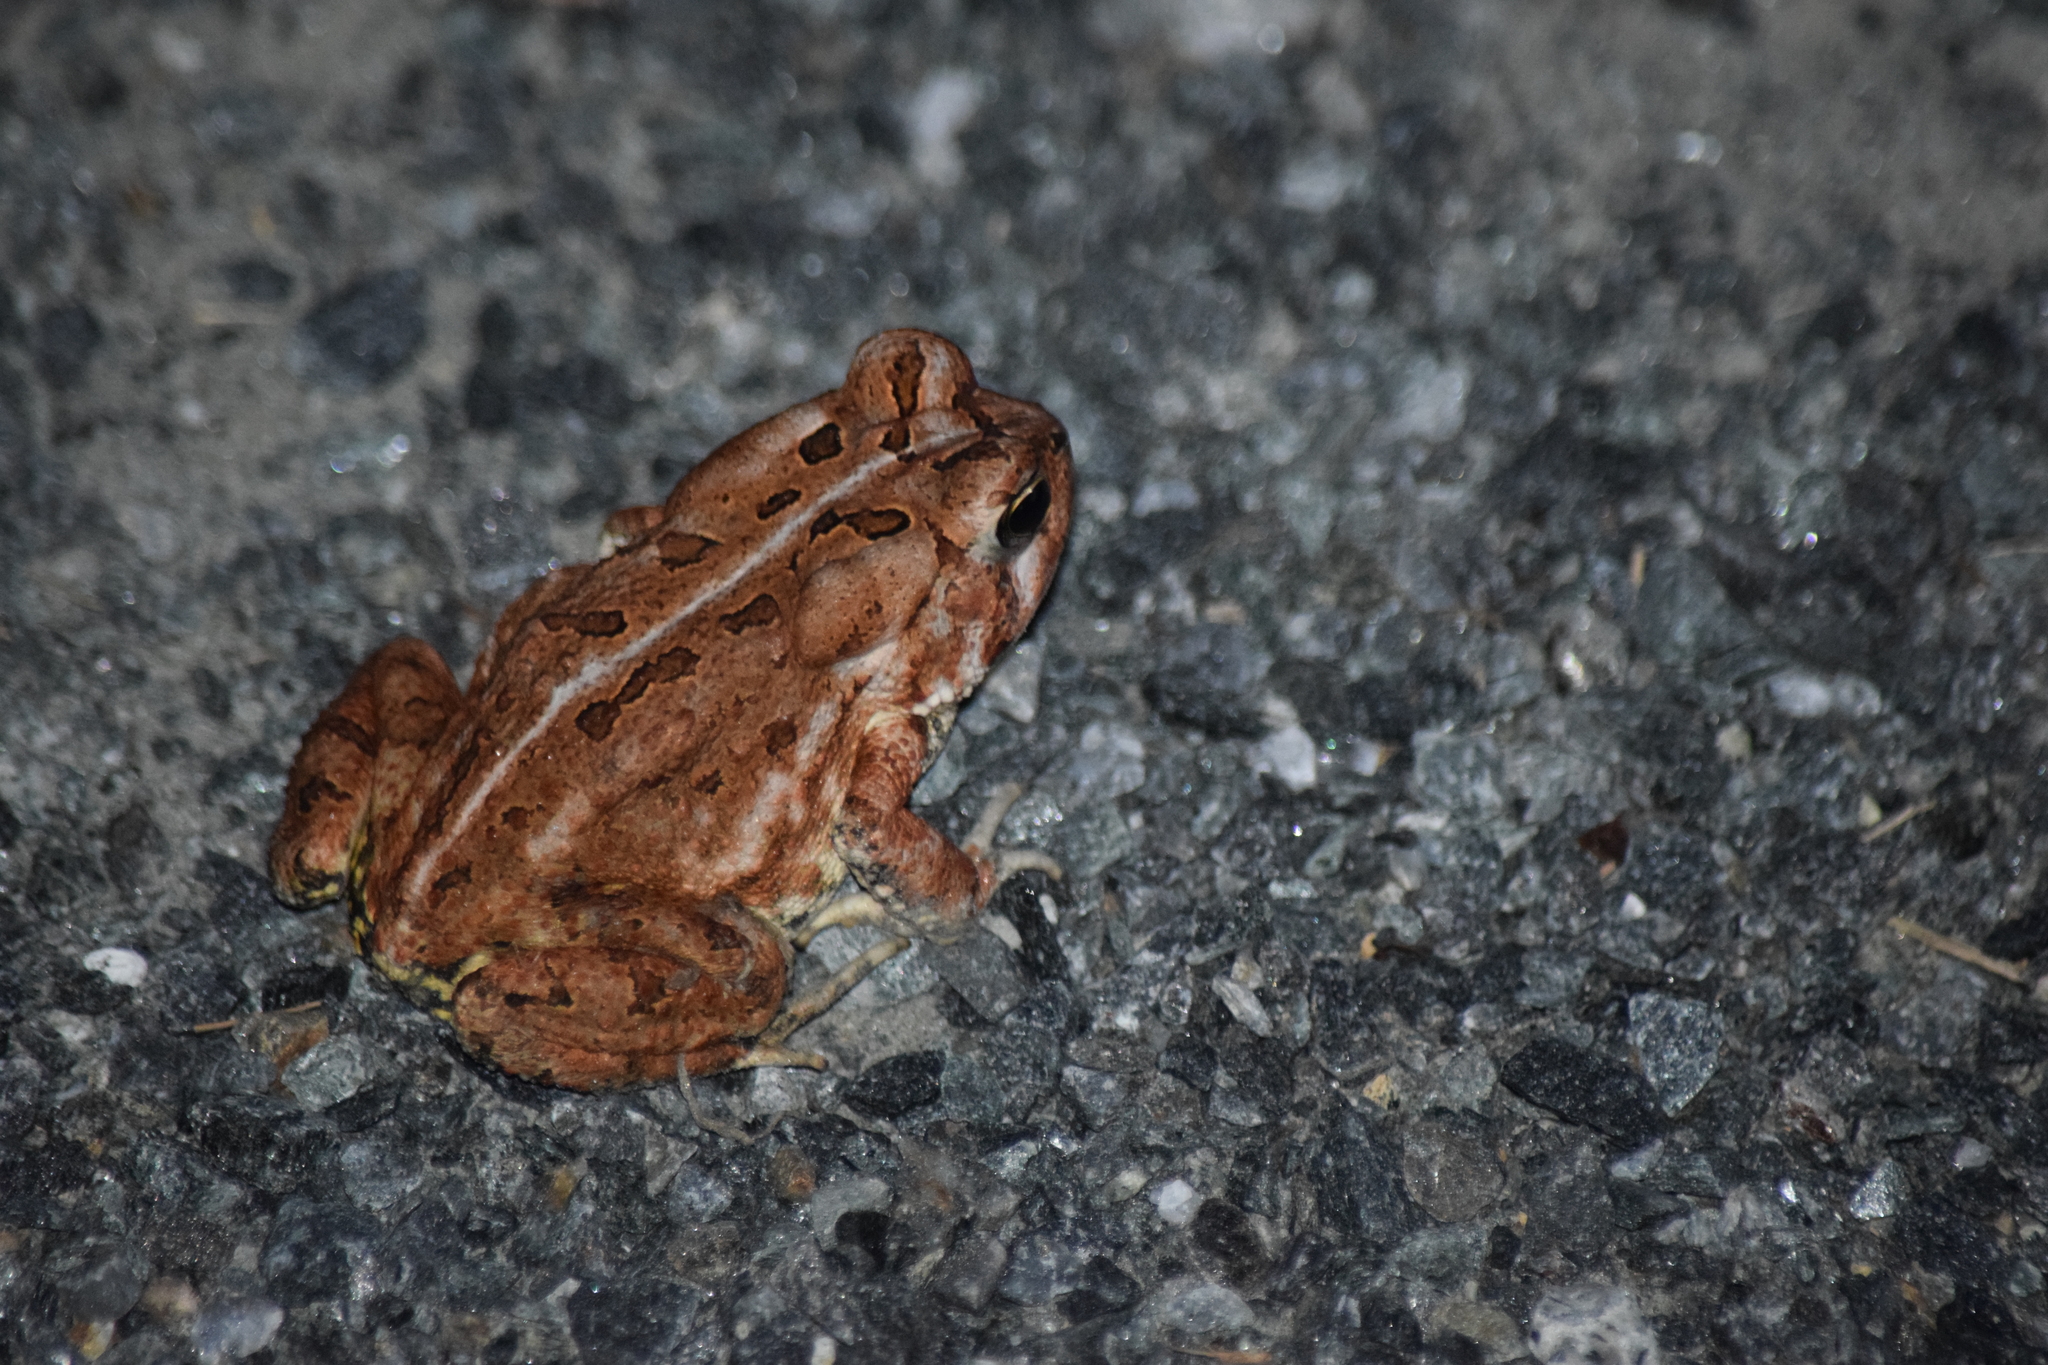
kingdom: Animalia
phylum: Chordata
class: Amphibia
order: Anura
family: Bufonidae
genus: Anaxyrus
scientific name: Anaxyrus fowleri
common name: Fowler's toad
